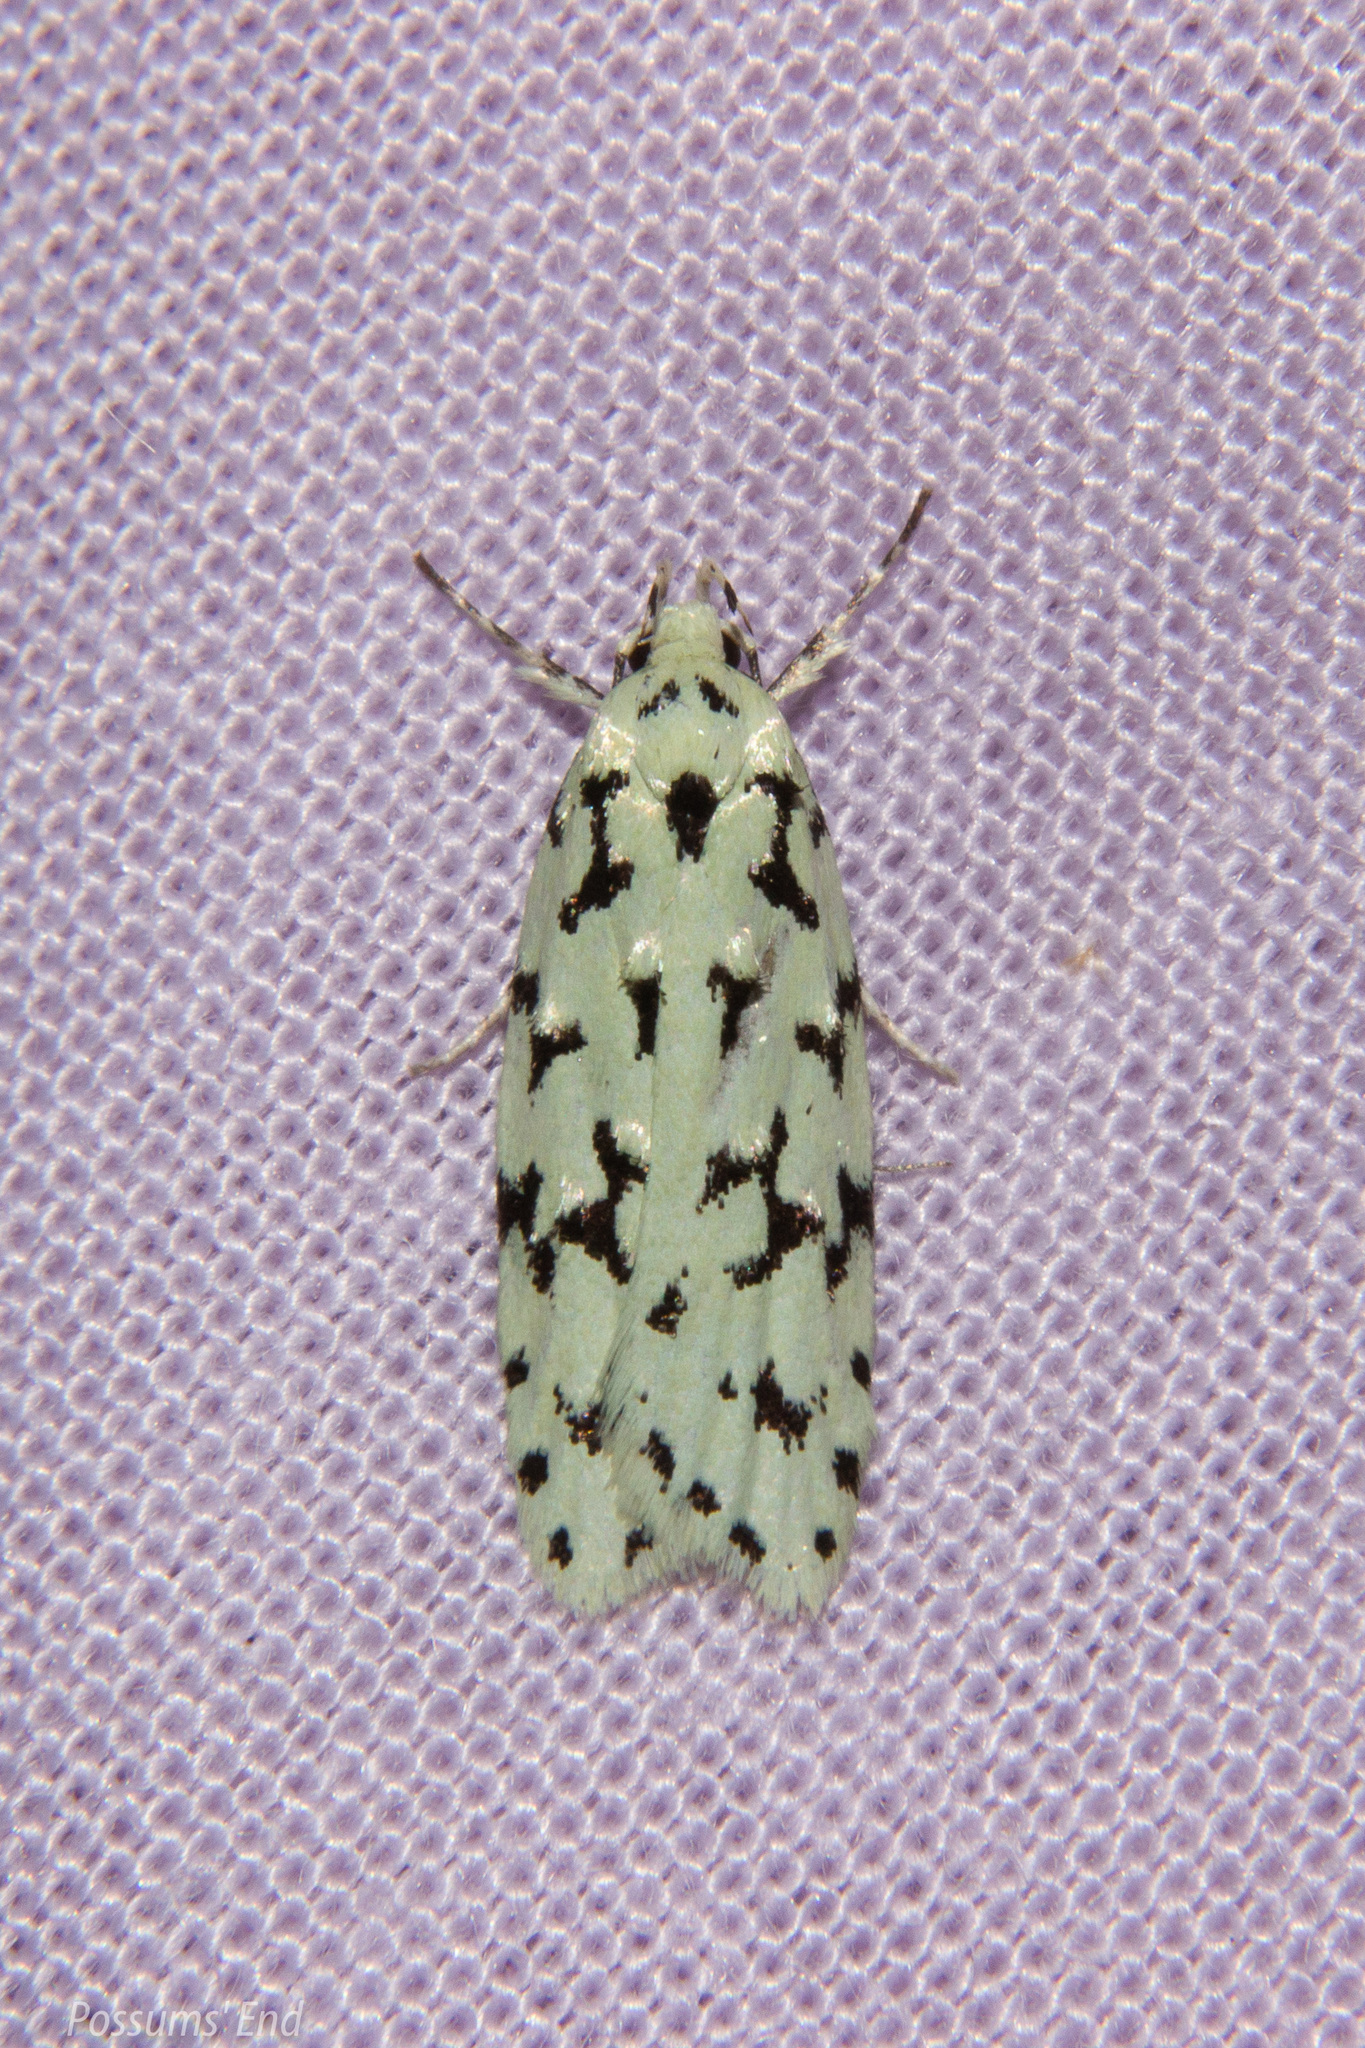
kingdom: Animalia
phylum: Arthropoda
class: Insecta
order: Lepidoptera
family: Oecophoridae
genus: Izatha
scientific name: Izatha huttoni
